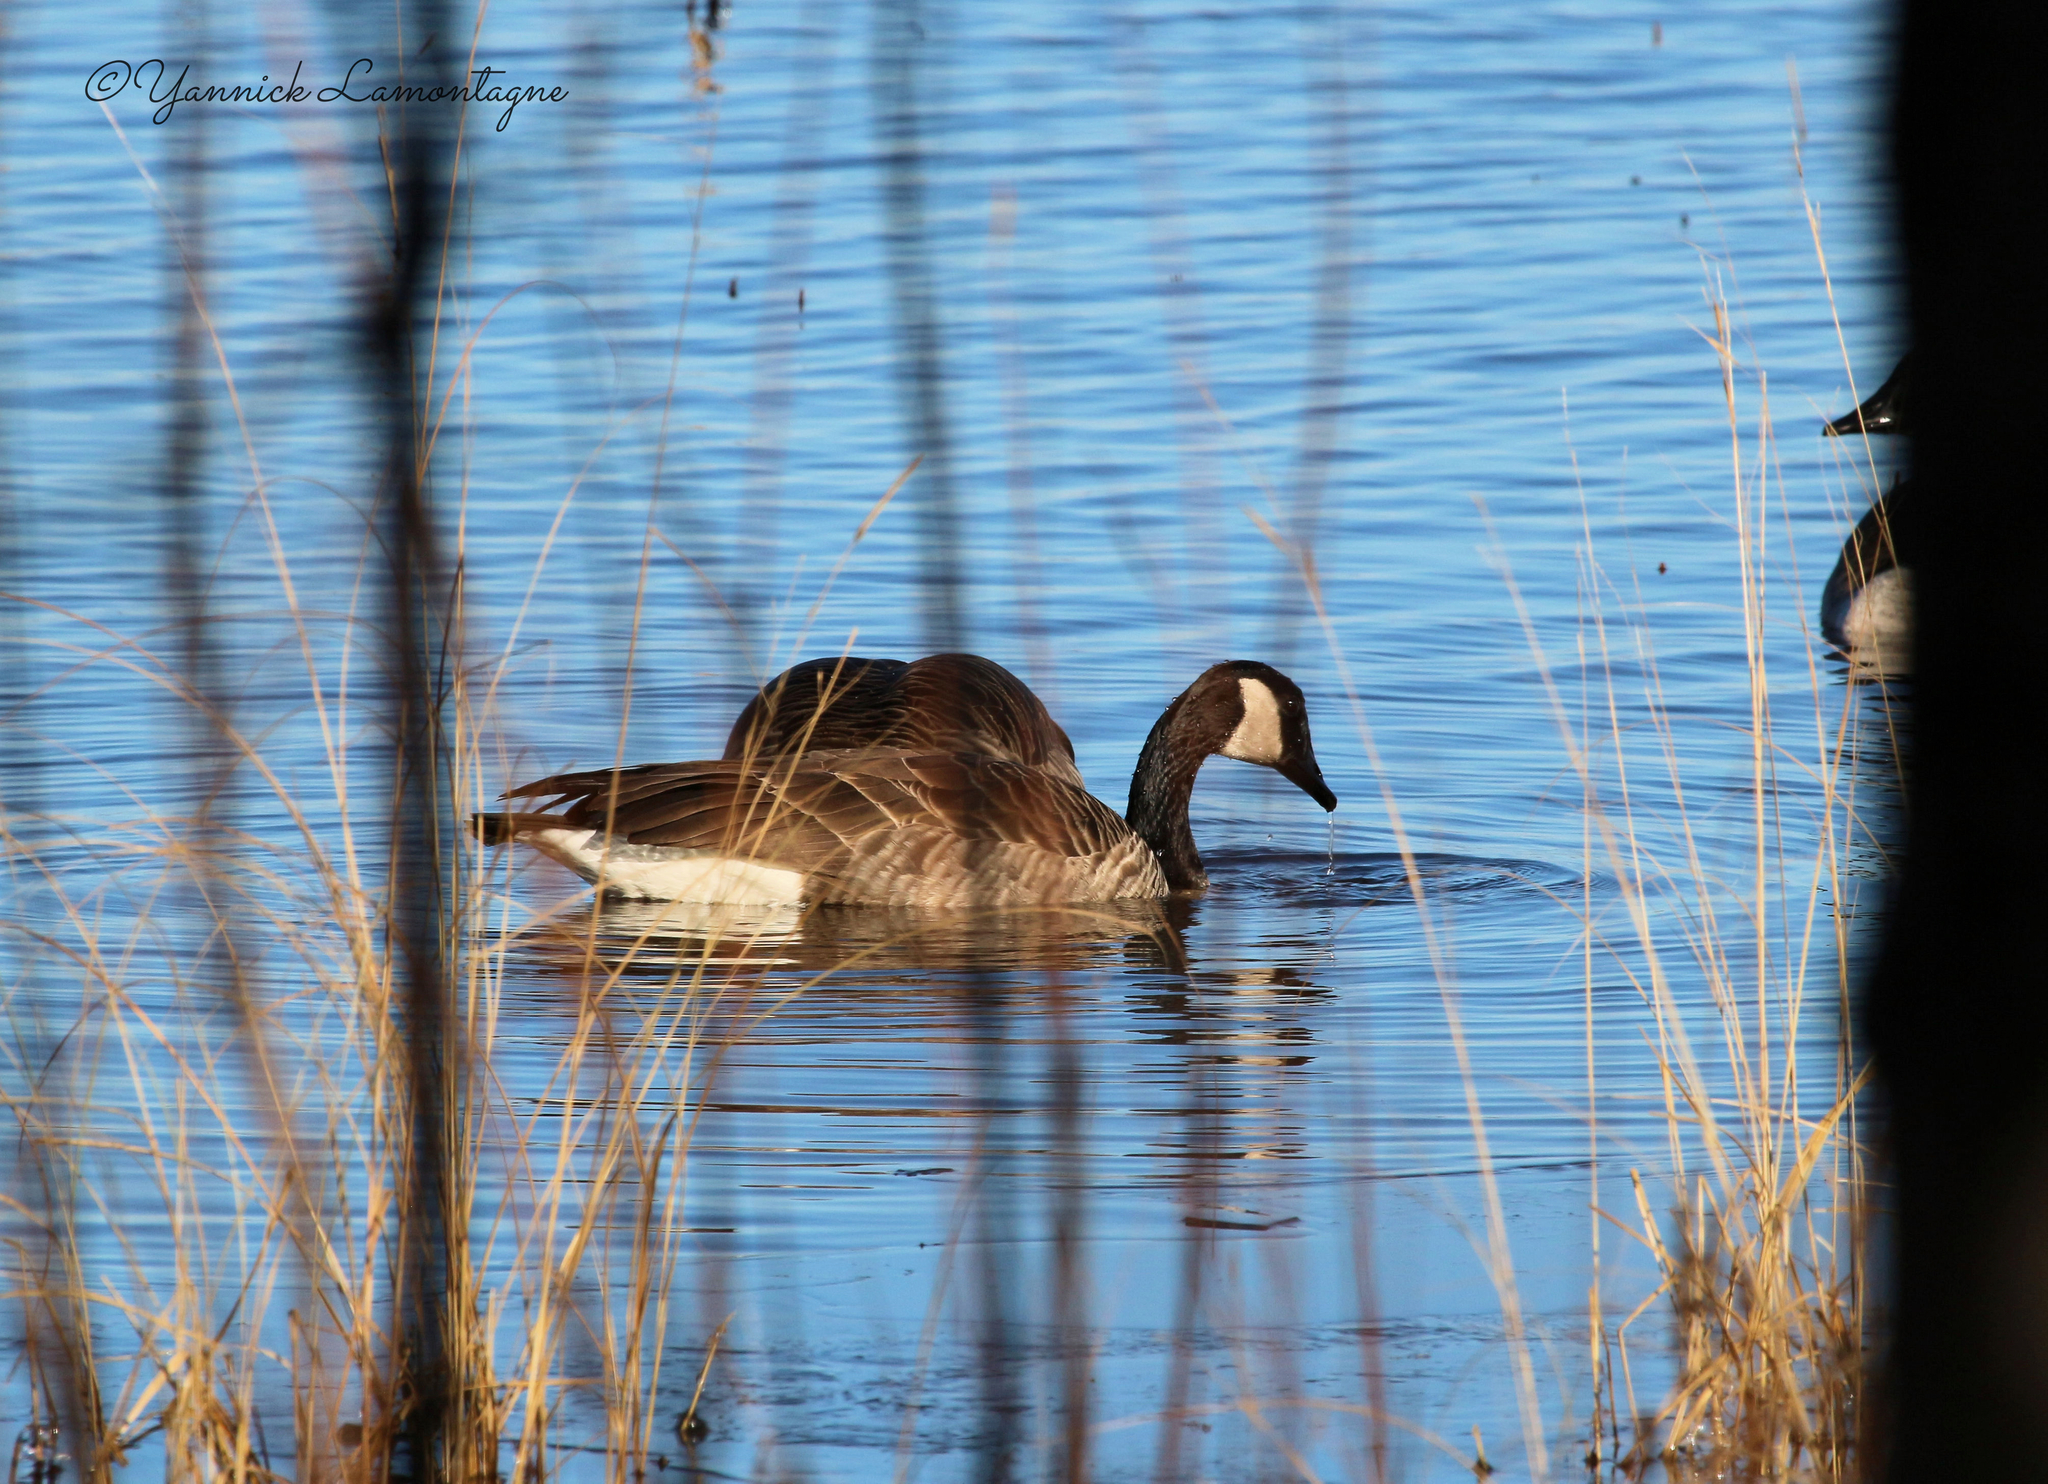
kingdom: Animalia
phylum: Chordata
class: Aves
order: Anseriformes
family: Anatidae
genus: Branta
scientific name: Branta canadensis
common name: Canada goose
